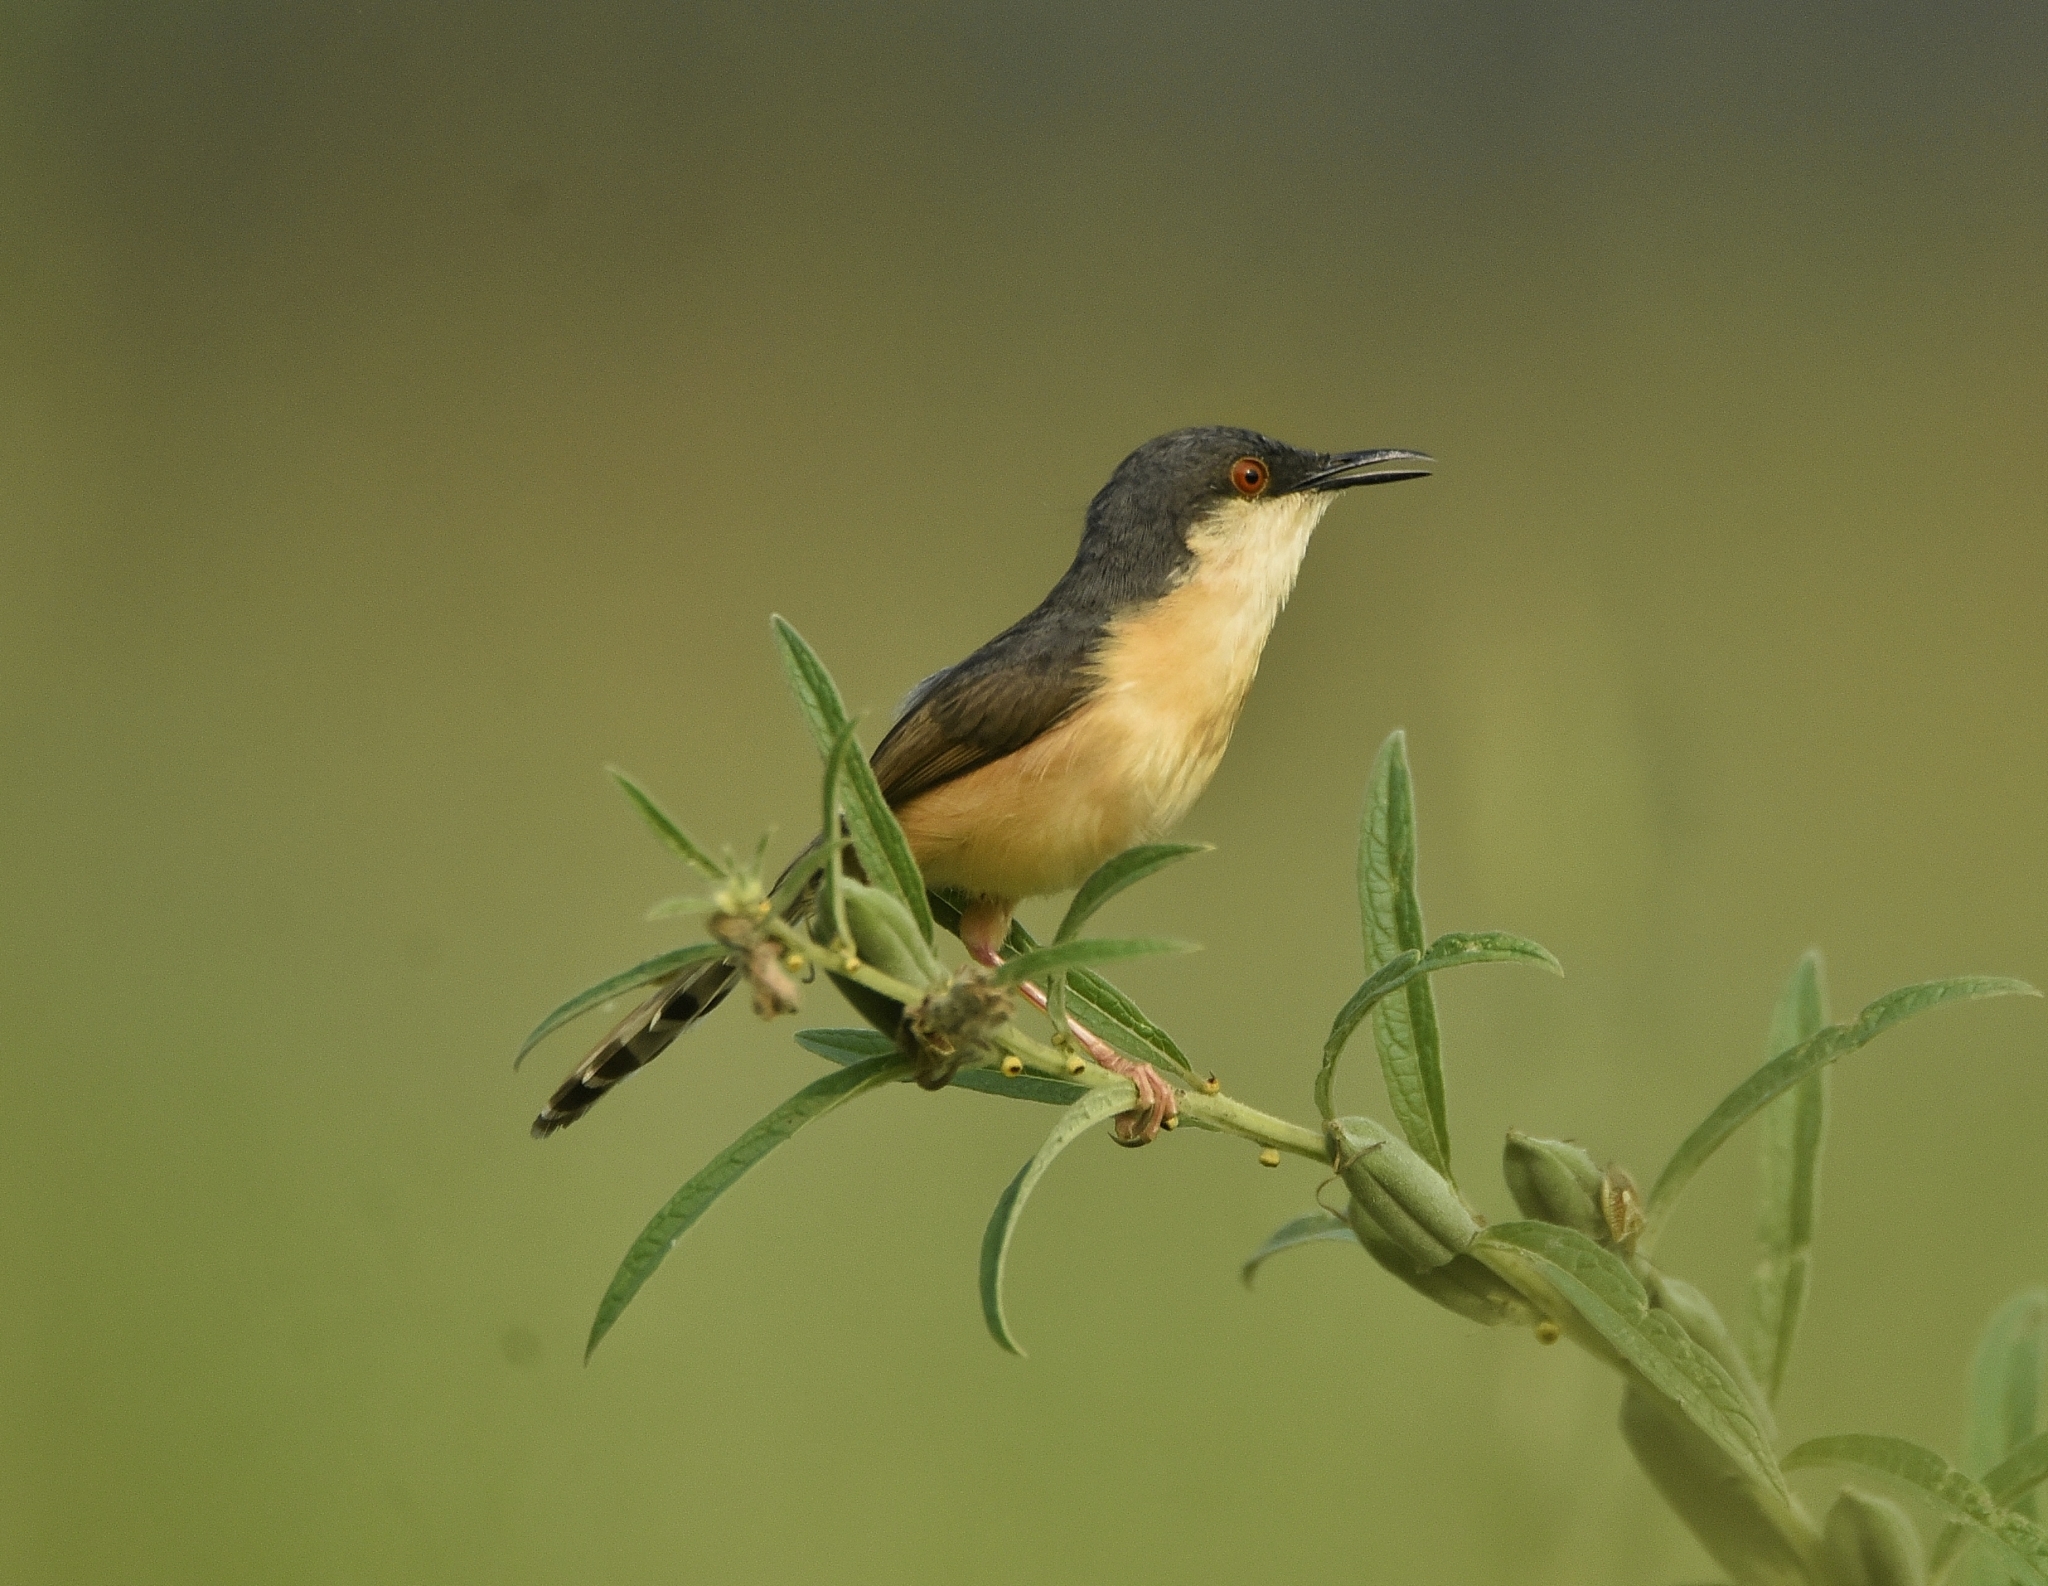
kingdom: Animalia
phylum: Chordata
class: Aves
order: Passeriformes
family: Cisticolidae
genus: Prinia
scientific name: Prinia socialis
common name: Ashy prinia
